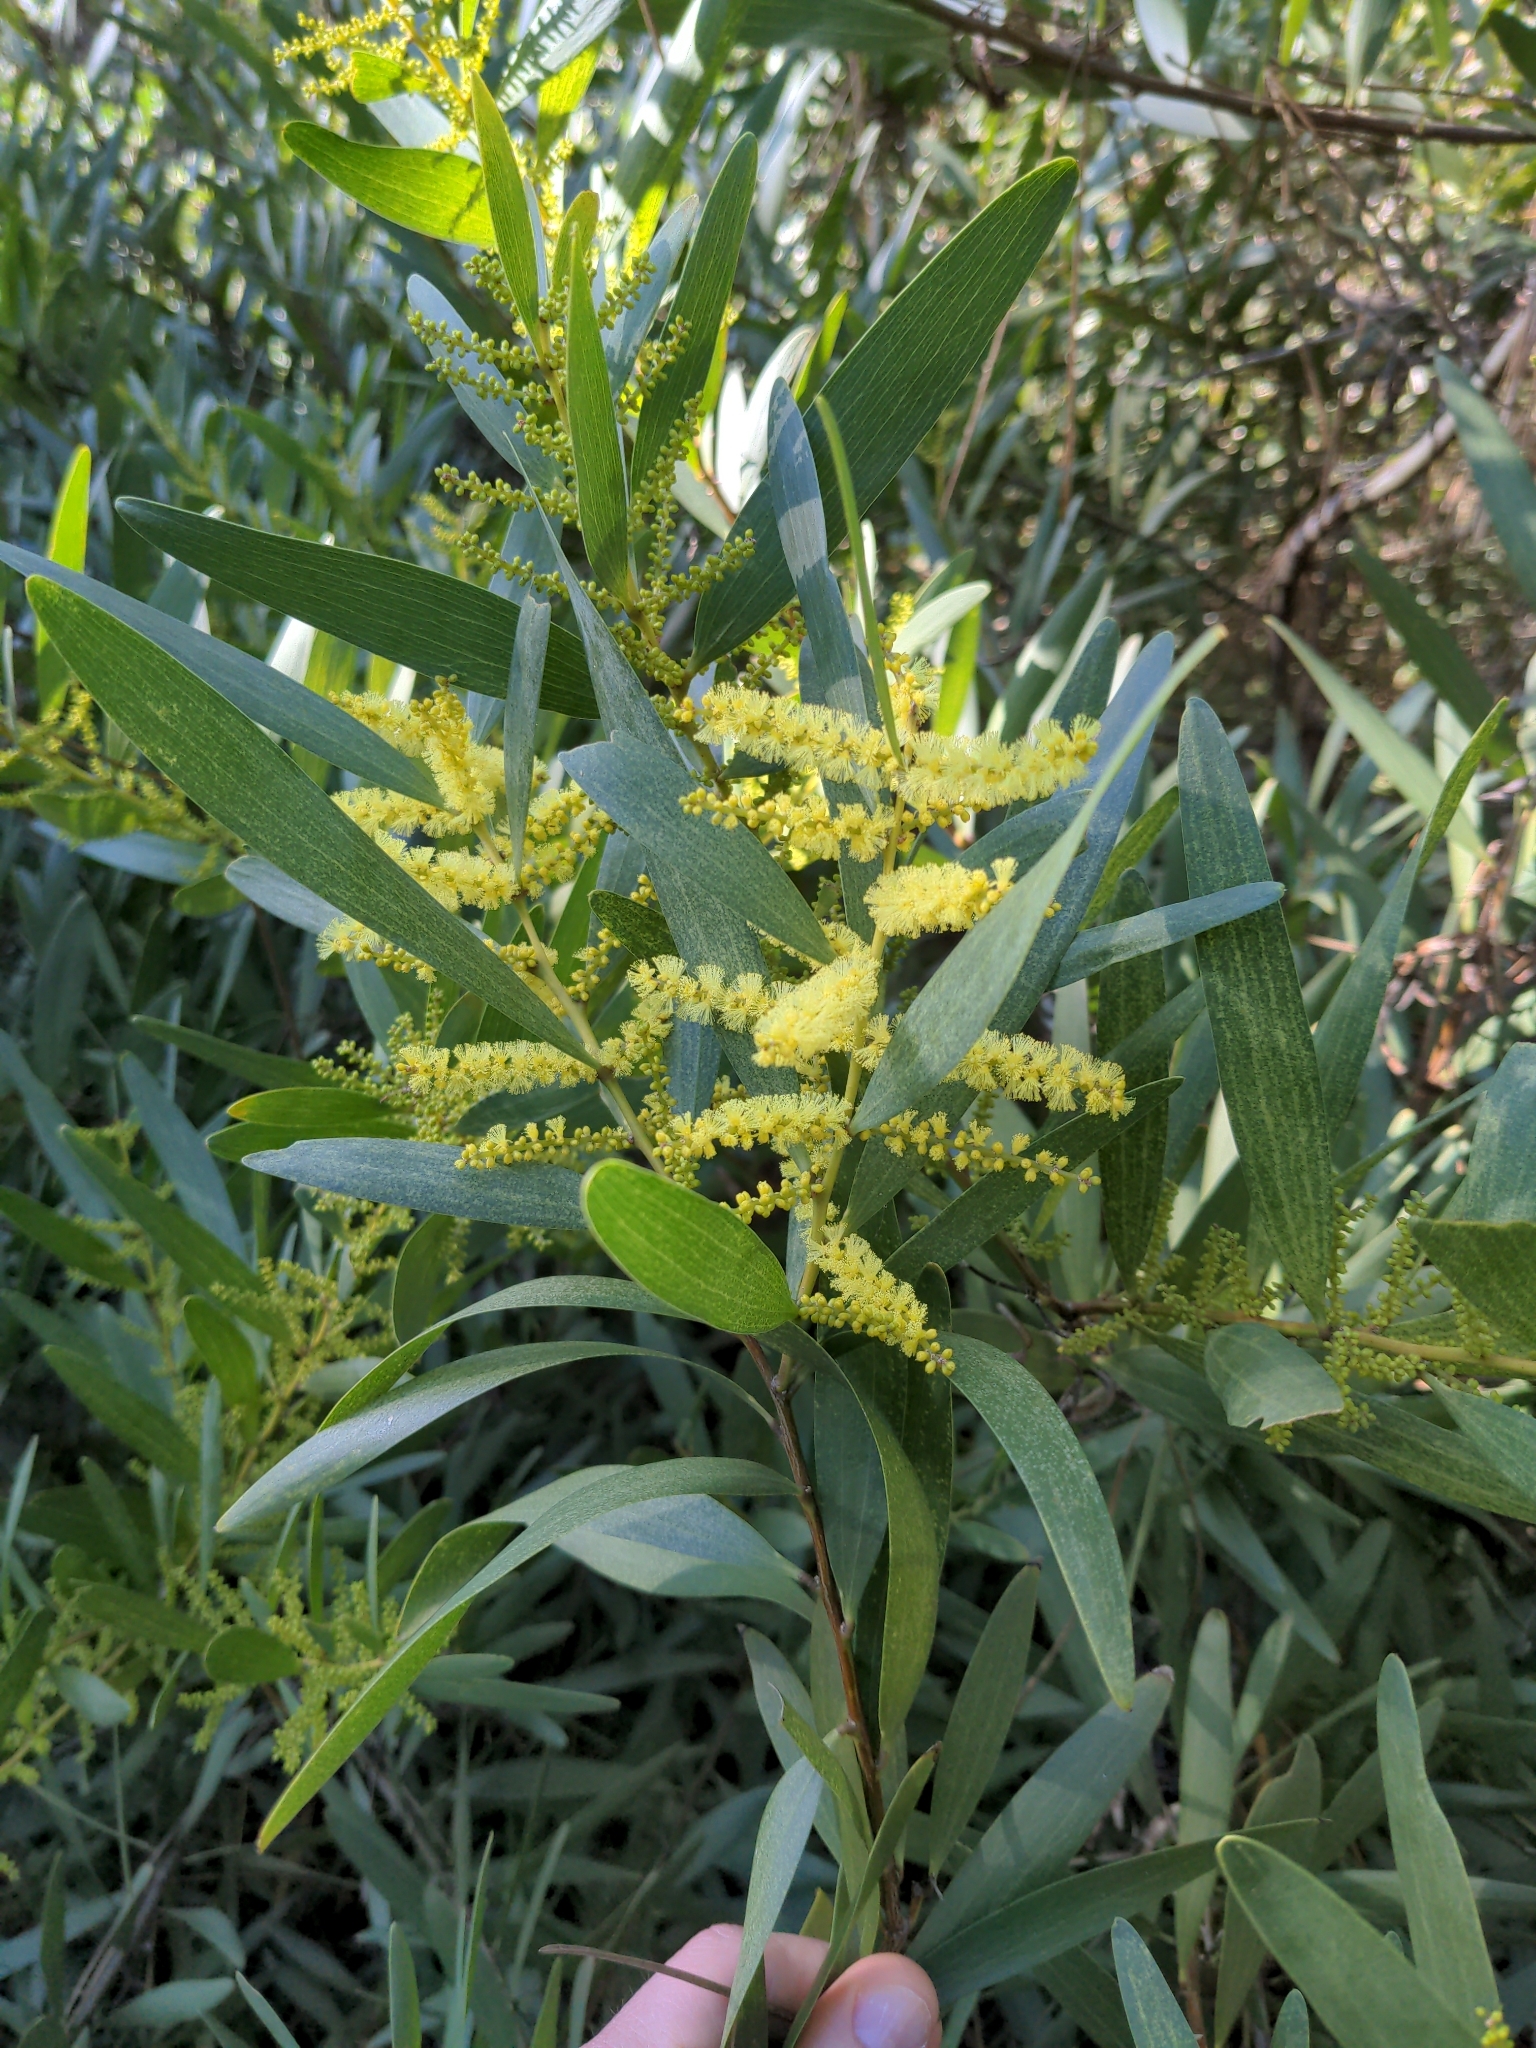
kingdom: Plantae
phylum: Tracheophyta
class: Magnoliopsida
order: Fabales
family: Fabaceae
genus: Acacia
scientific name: Acacia longifolia
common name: Sydney golden wattle
